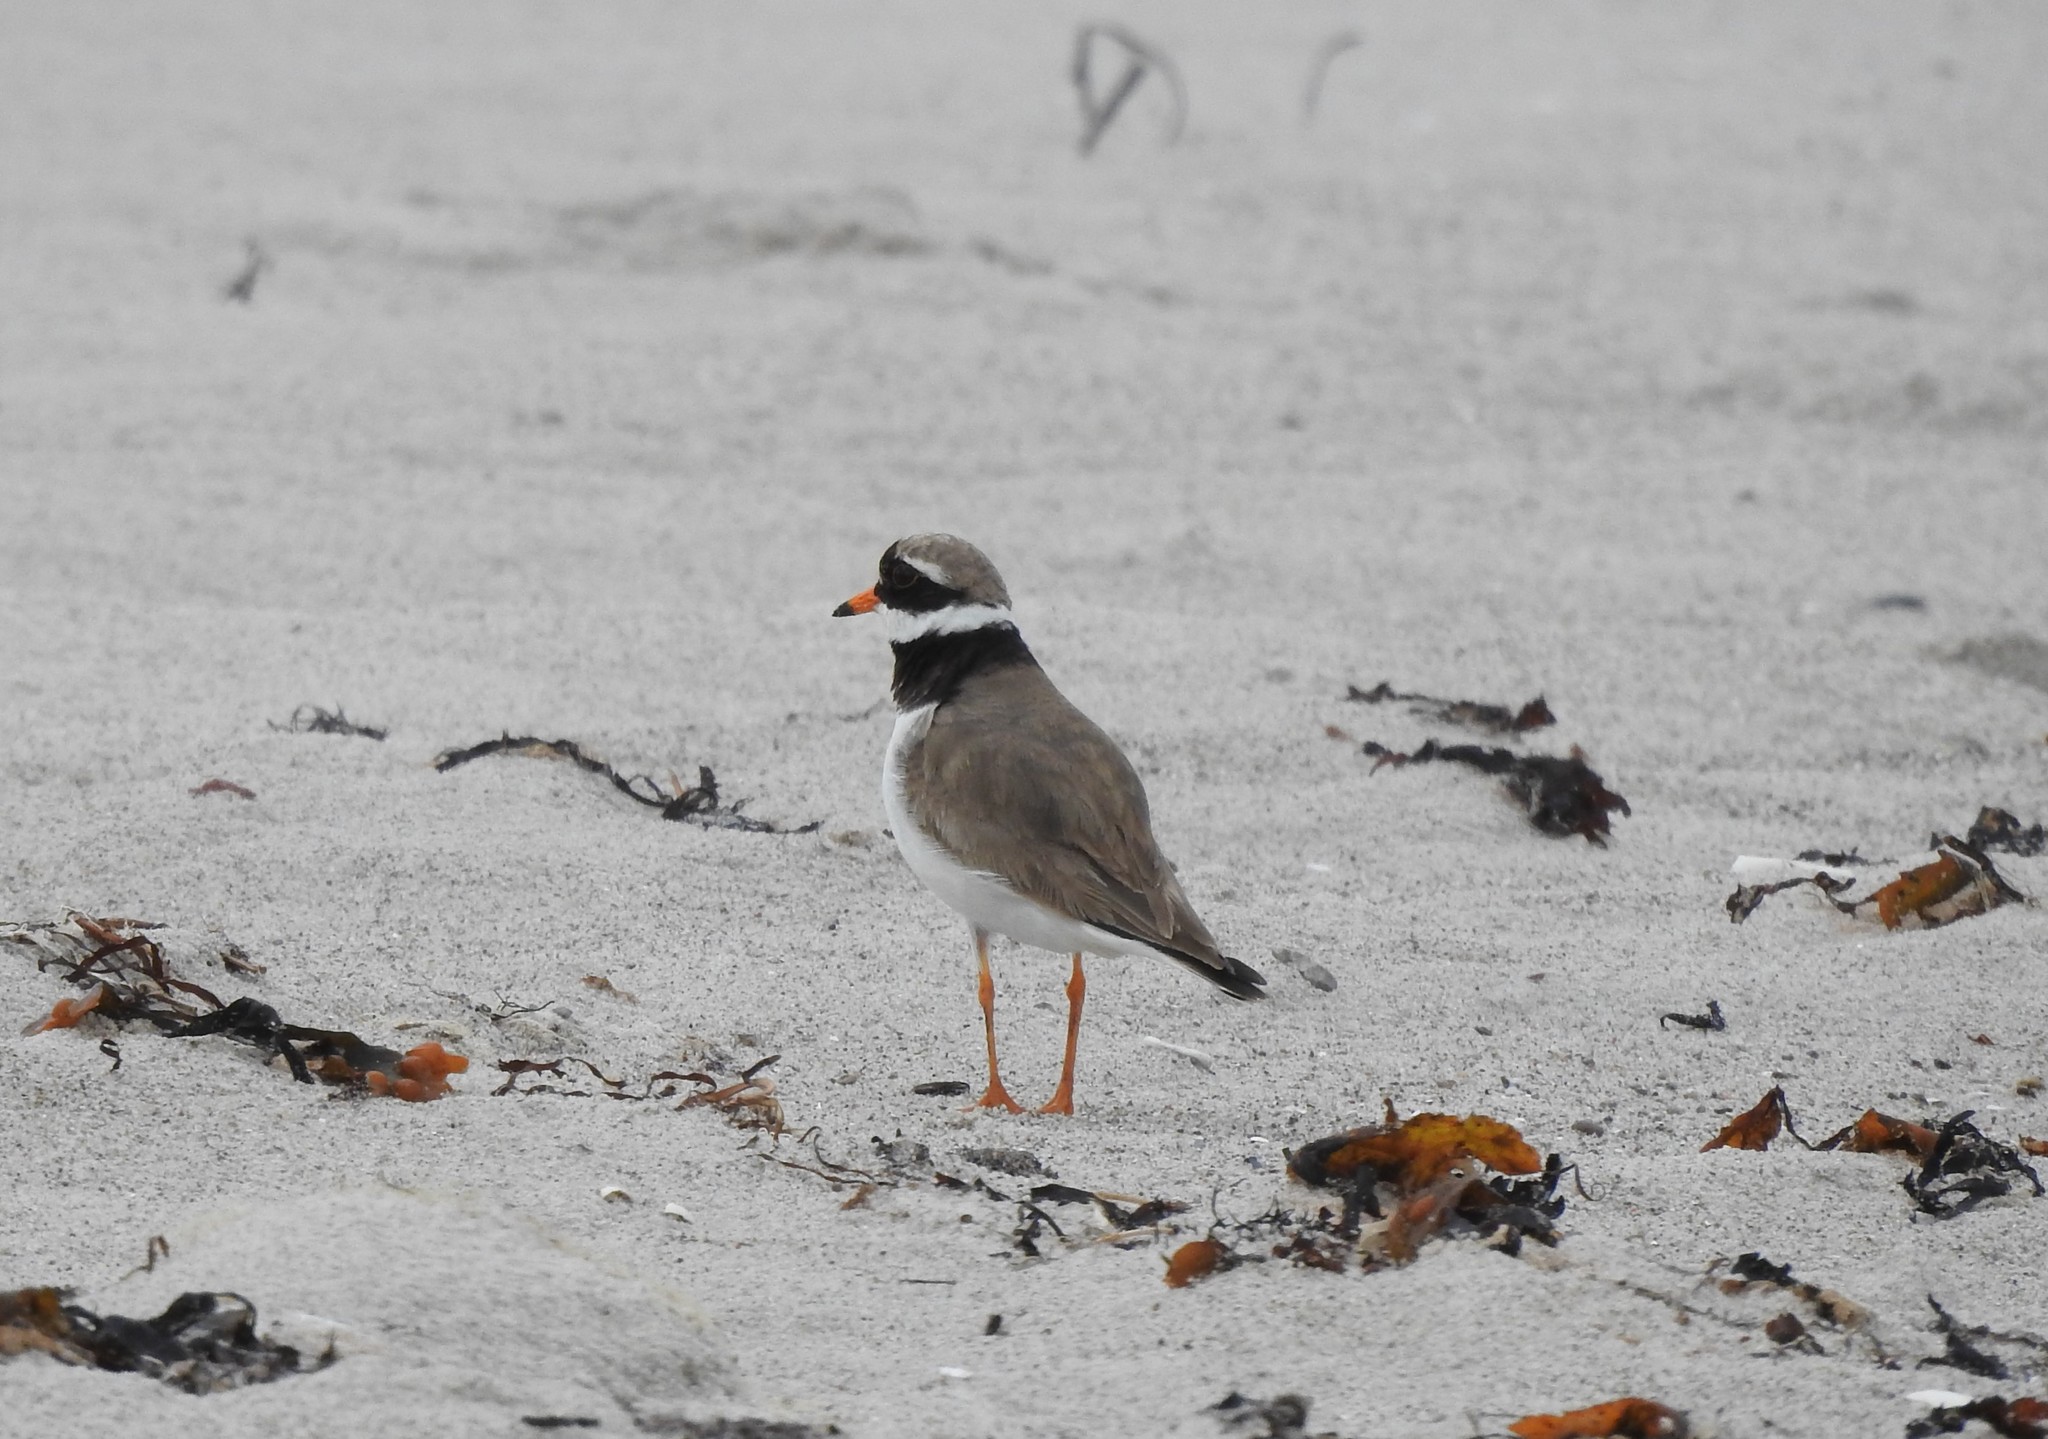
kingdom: Animalia
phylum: Chordata
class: Aves
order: Charadriiformes
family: Charadriidae
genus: Charadrius
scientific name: Charadrius hiaticula
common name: Common ringed plover
